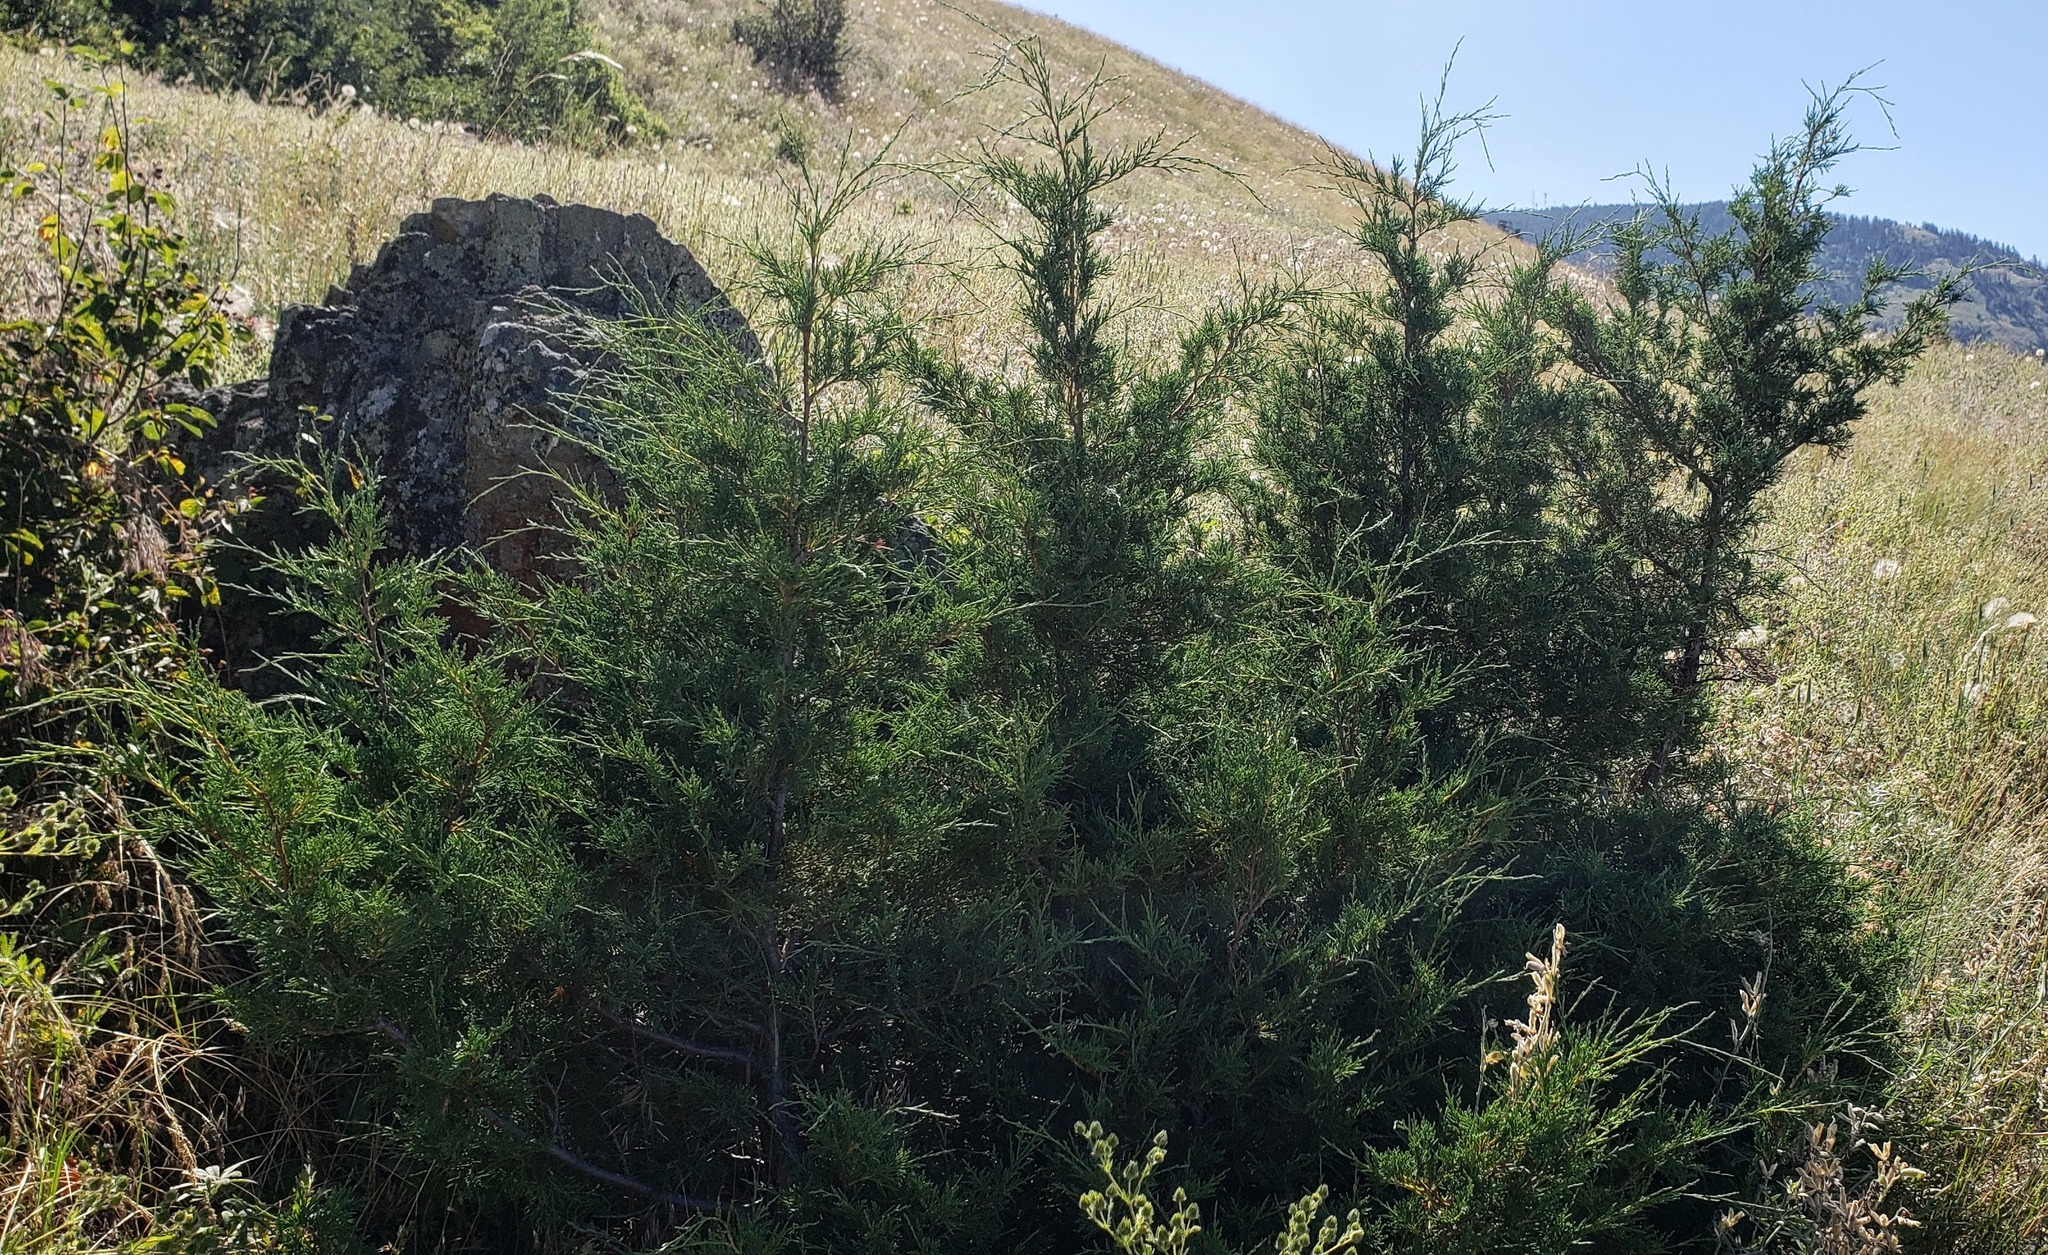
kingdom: Plantae
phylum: Tracheophyta
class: Pinopsida
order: Pinales
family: Cupressaceae
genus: Juniperus
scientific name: Juniperus scopulorum
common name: Rocky mountain juniper
